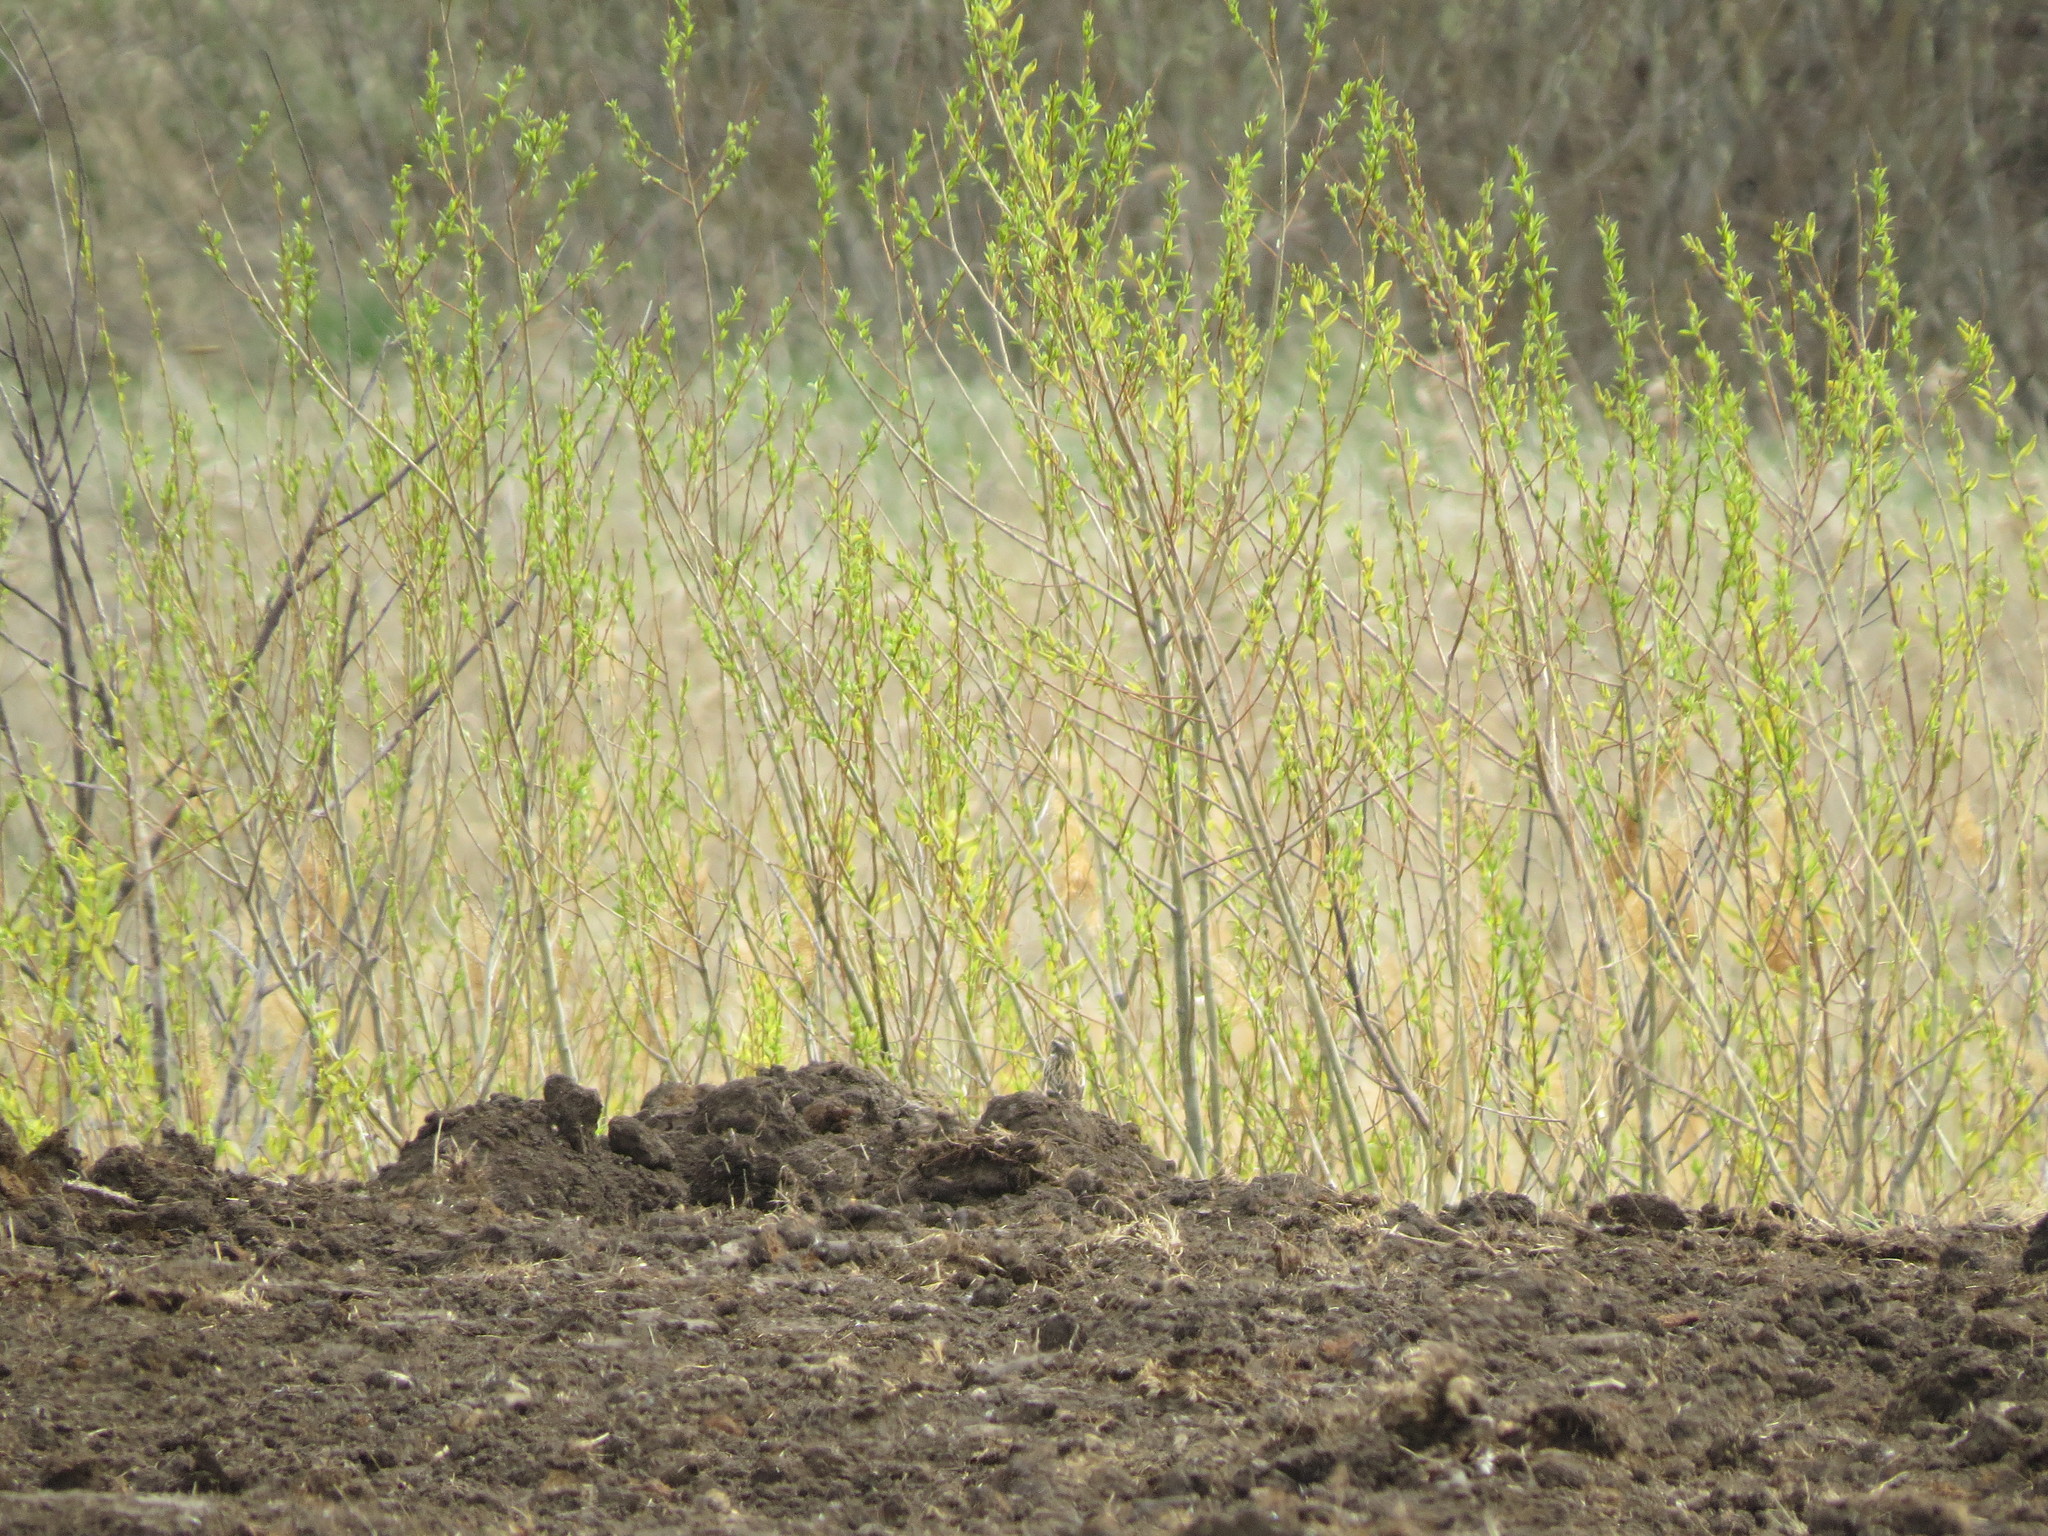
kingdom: Animalia
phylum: Chordata
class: Aves
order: Passeriformes
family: Muscicapidae
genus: Saxicola
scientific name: Saxicola rubetra
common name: Whinchat
